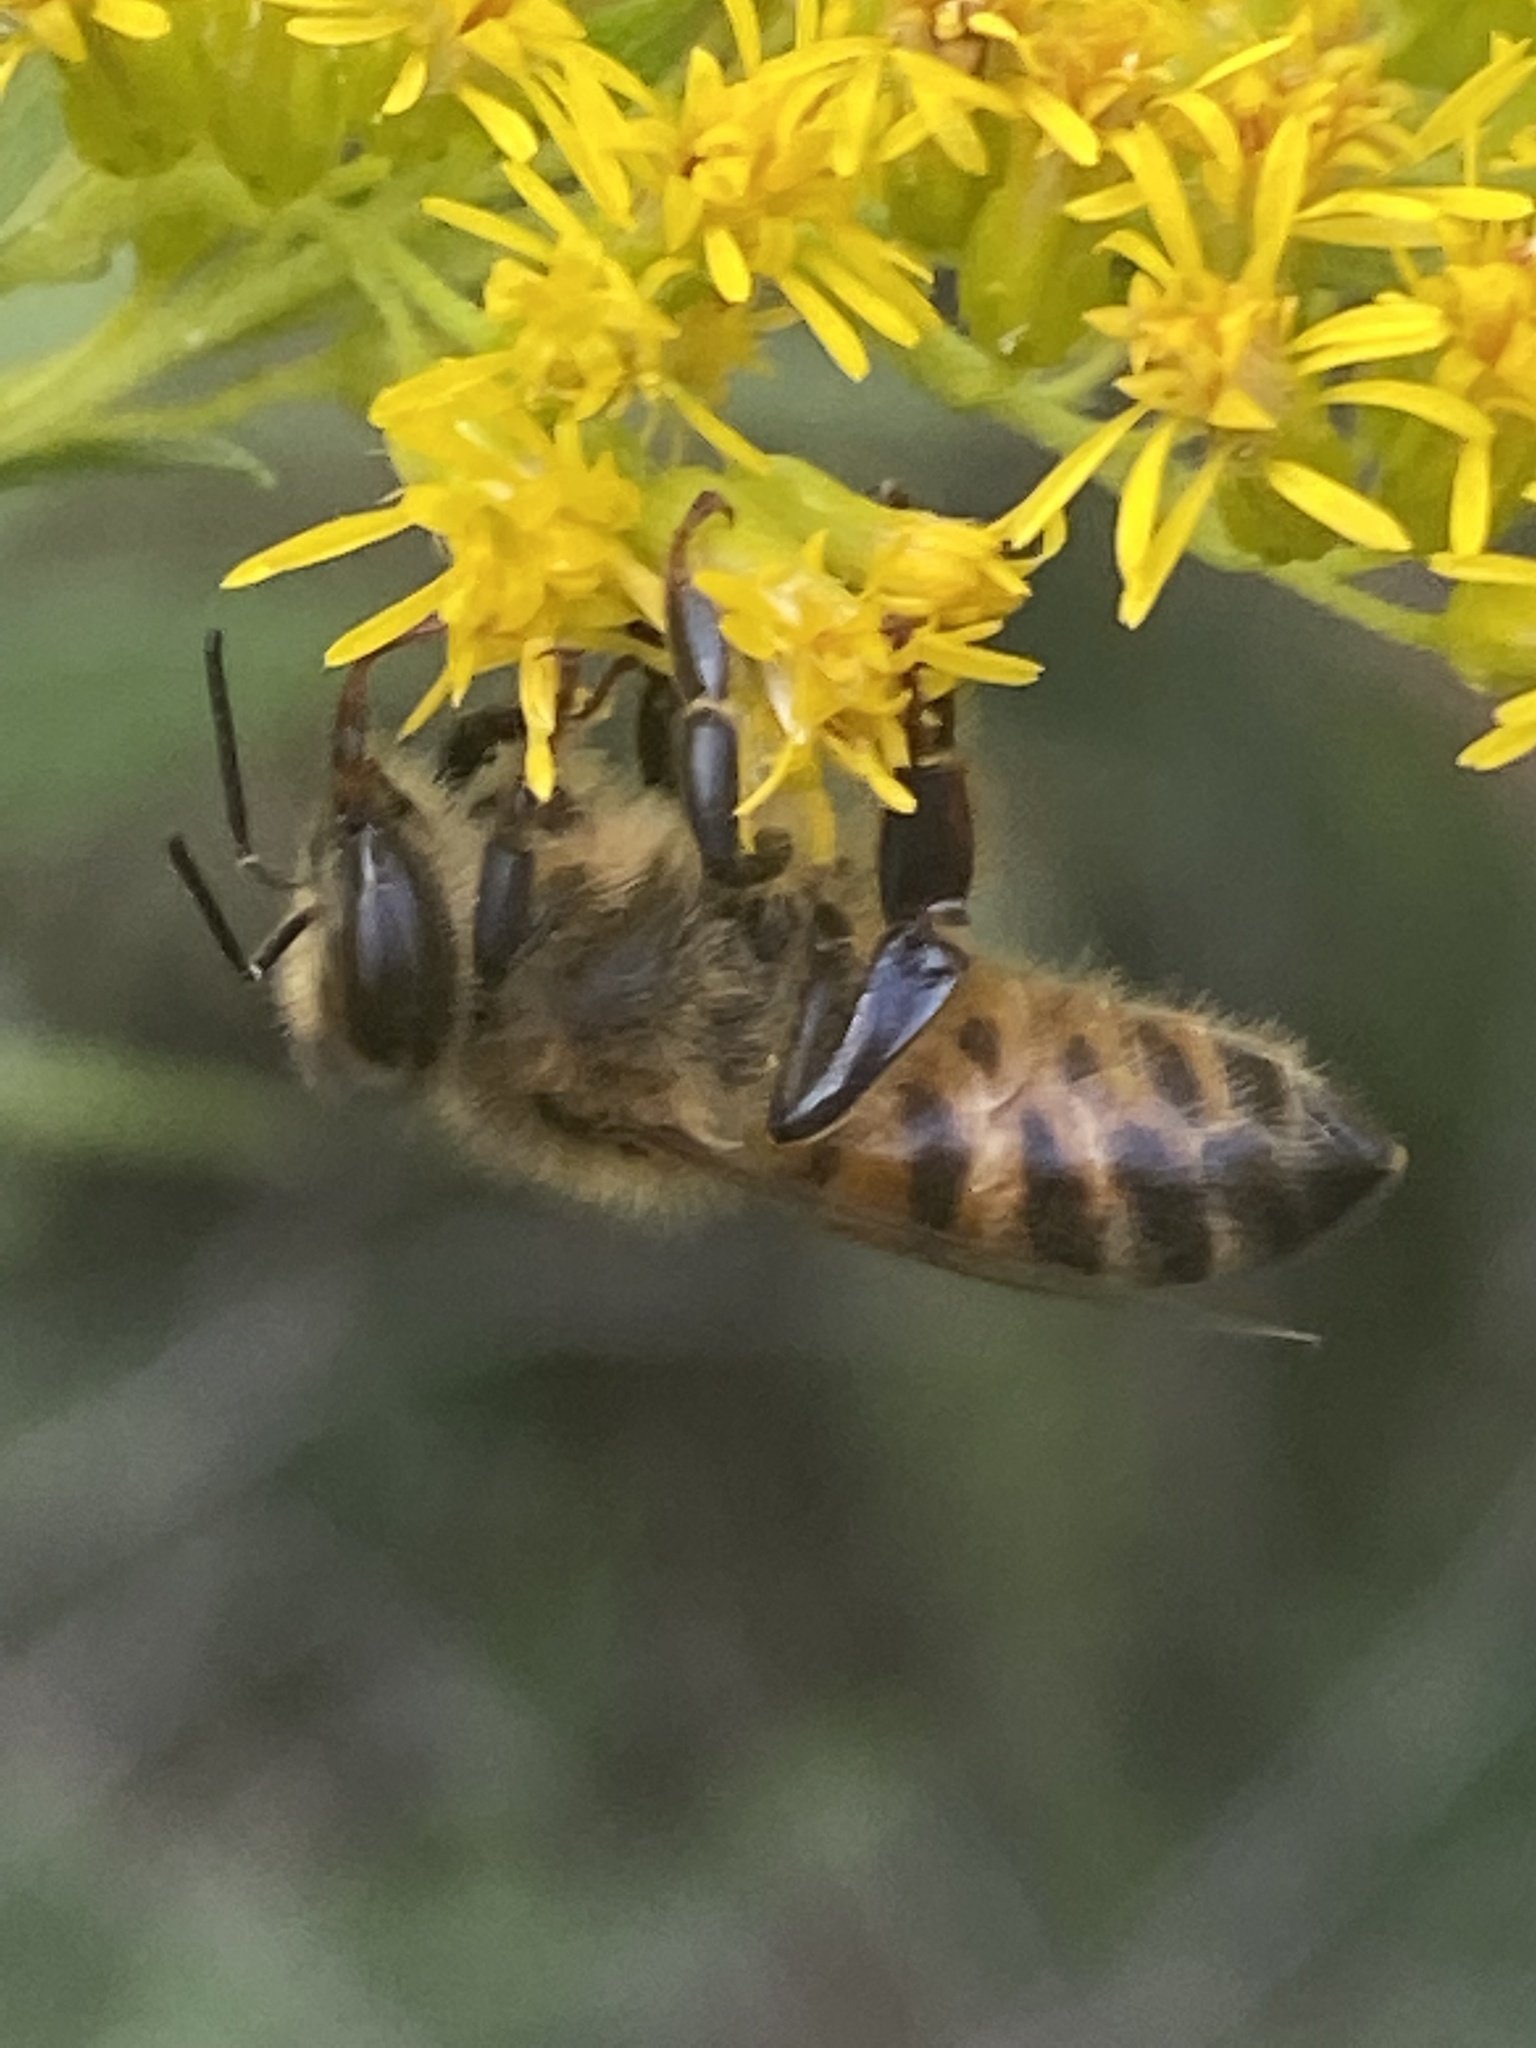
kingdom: Animalia
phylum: Arthropoda
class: Insecta
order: Hymenoptera
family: Apidae
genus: Apis
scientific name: Apis mellifera
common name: Honey bee
